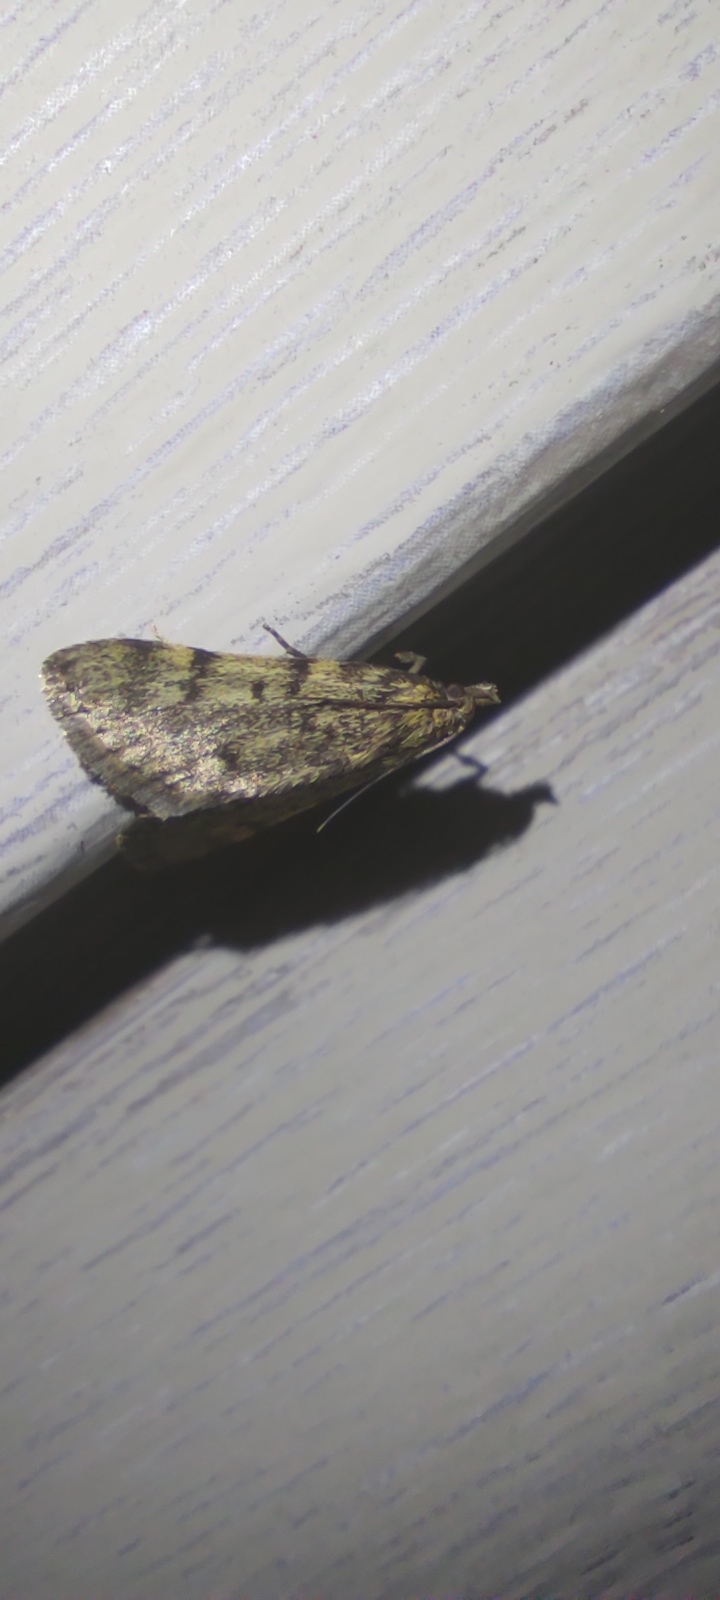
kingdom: Animalia
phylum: Arthropoda
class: Insecta
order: Lepidoptera
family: Pyralidae
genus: Aglossa
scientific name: Aglossa pinguinalis
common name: Large tabby
